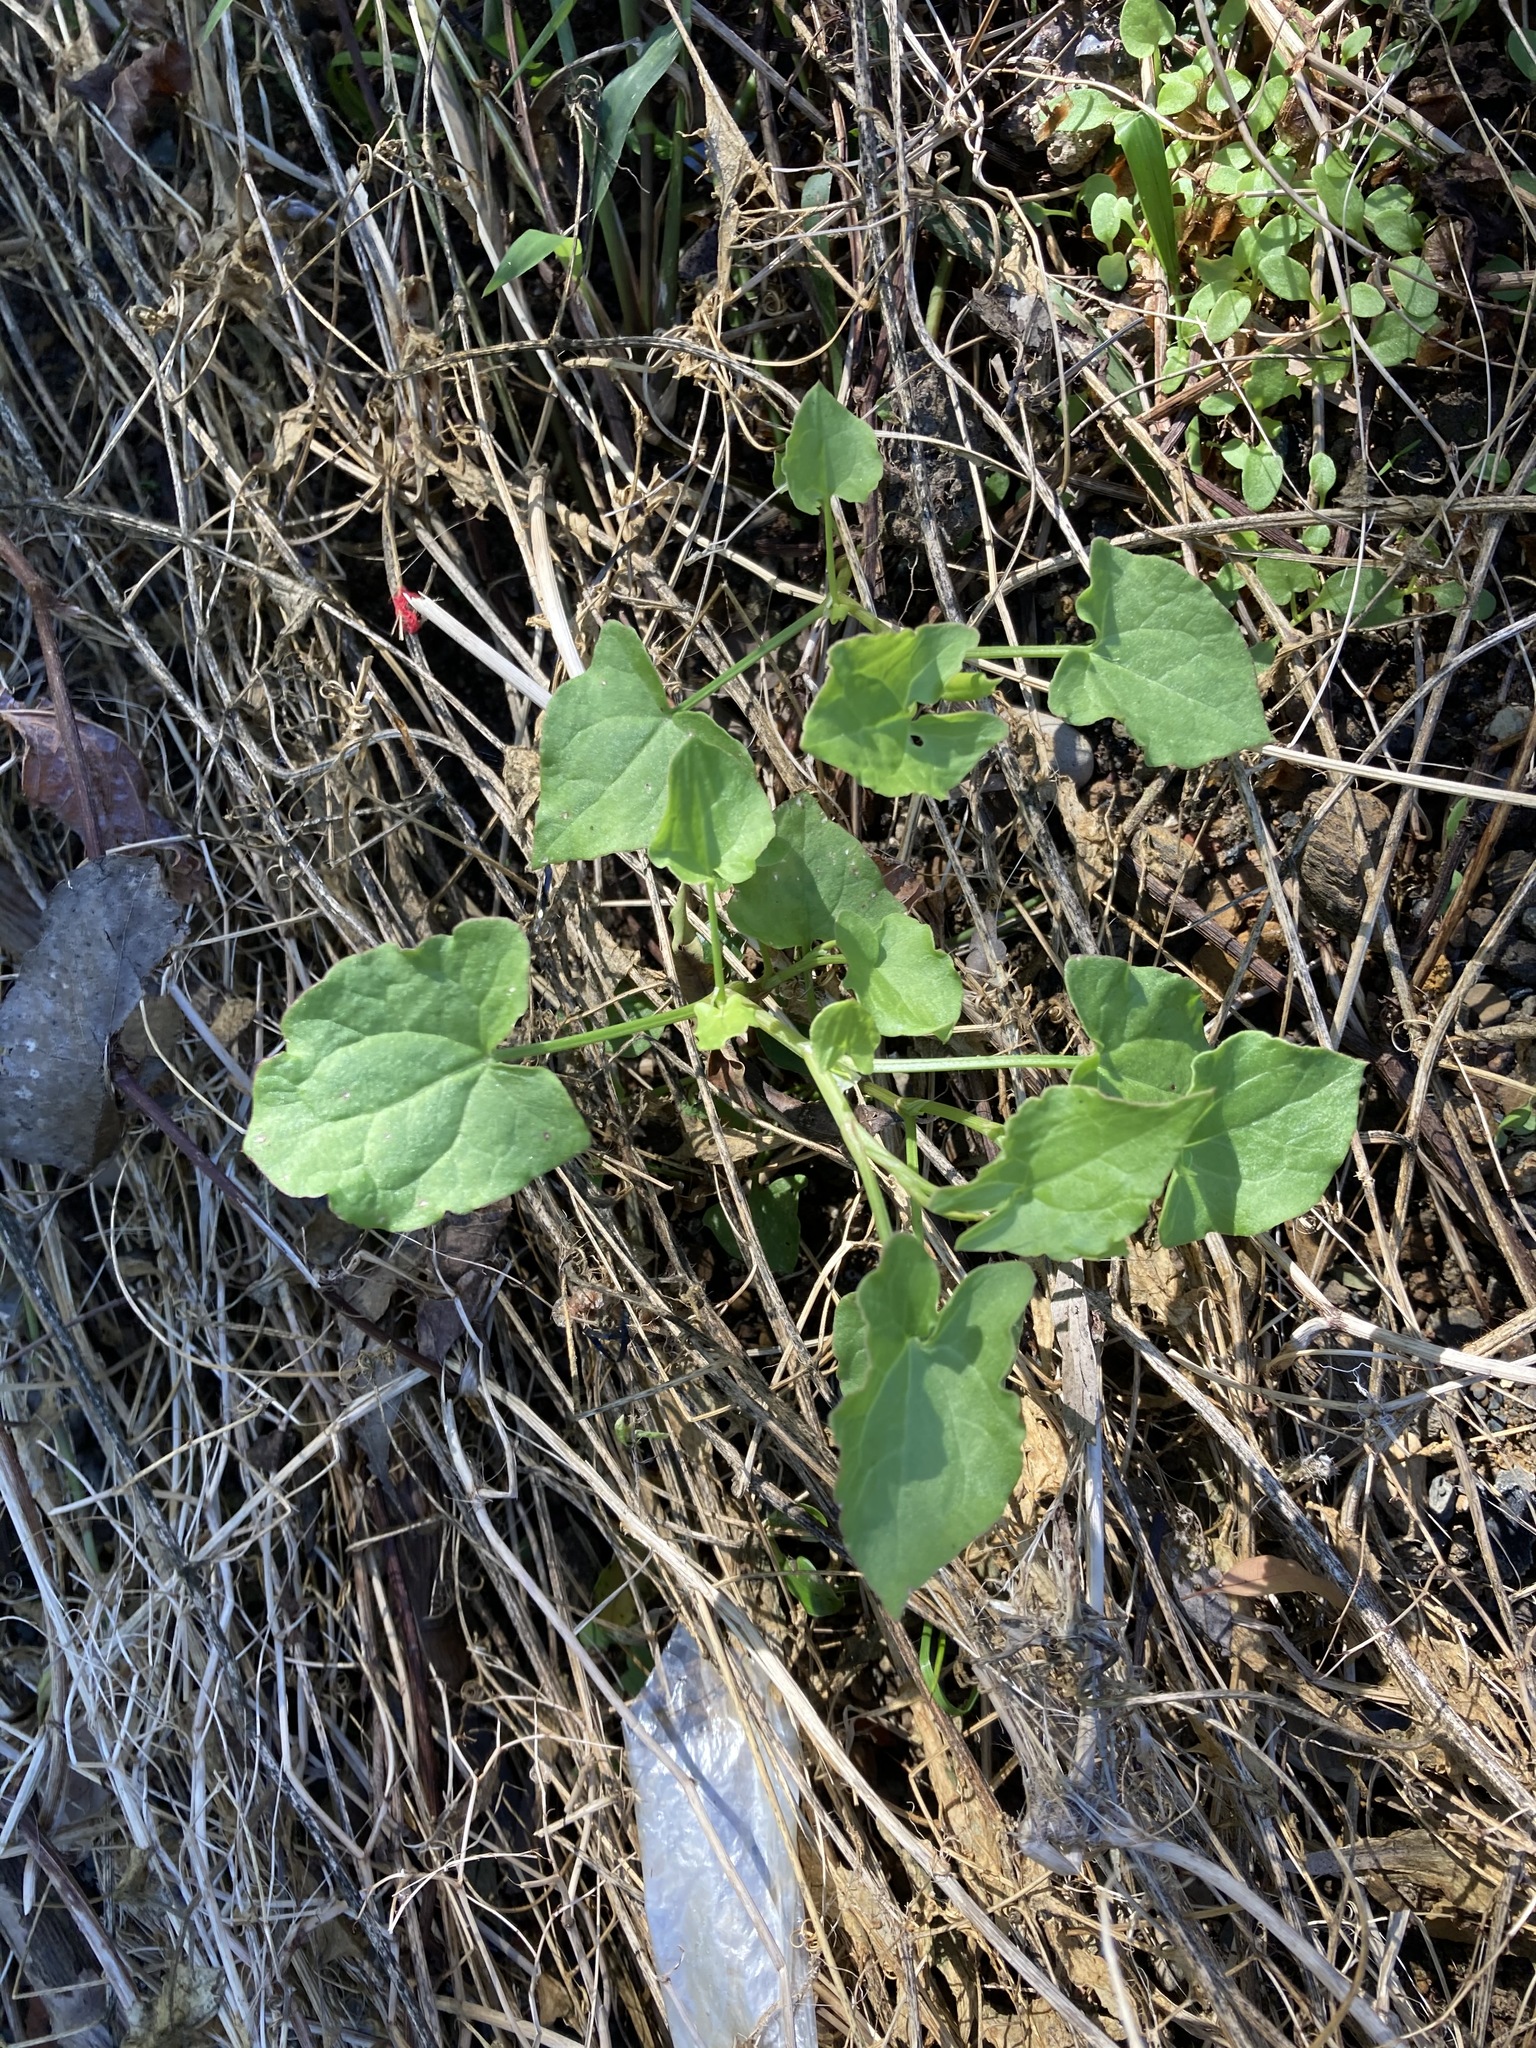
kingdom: Plantae
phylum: Tracheophyta
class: Magnoliopsida
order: Caryophyllales
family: Polygonaceae
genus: Rumex
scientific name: Rumex sagittatus
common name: Climbing dock
